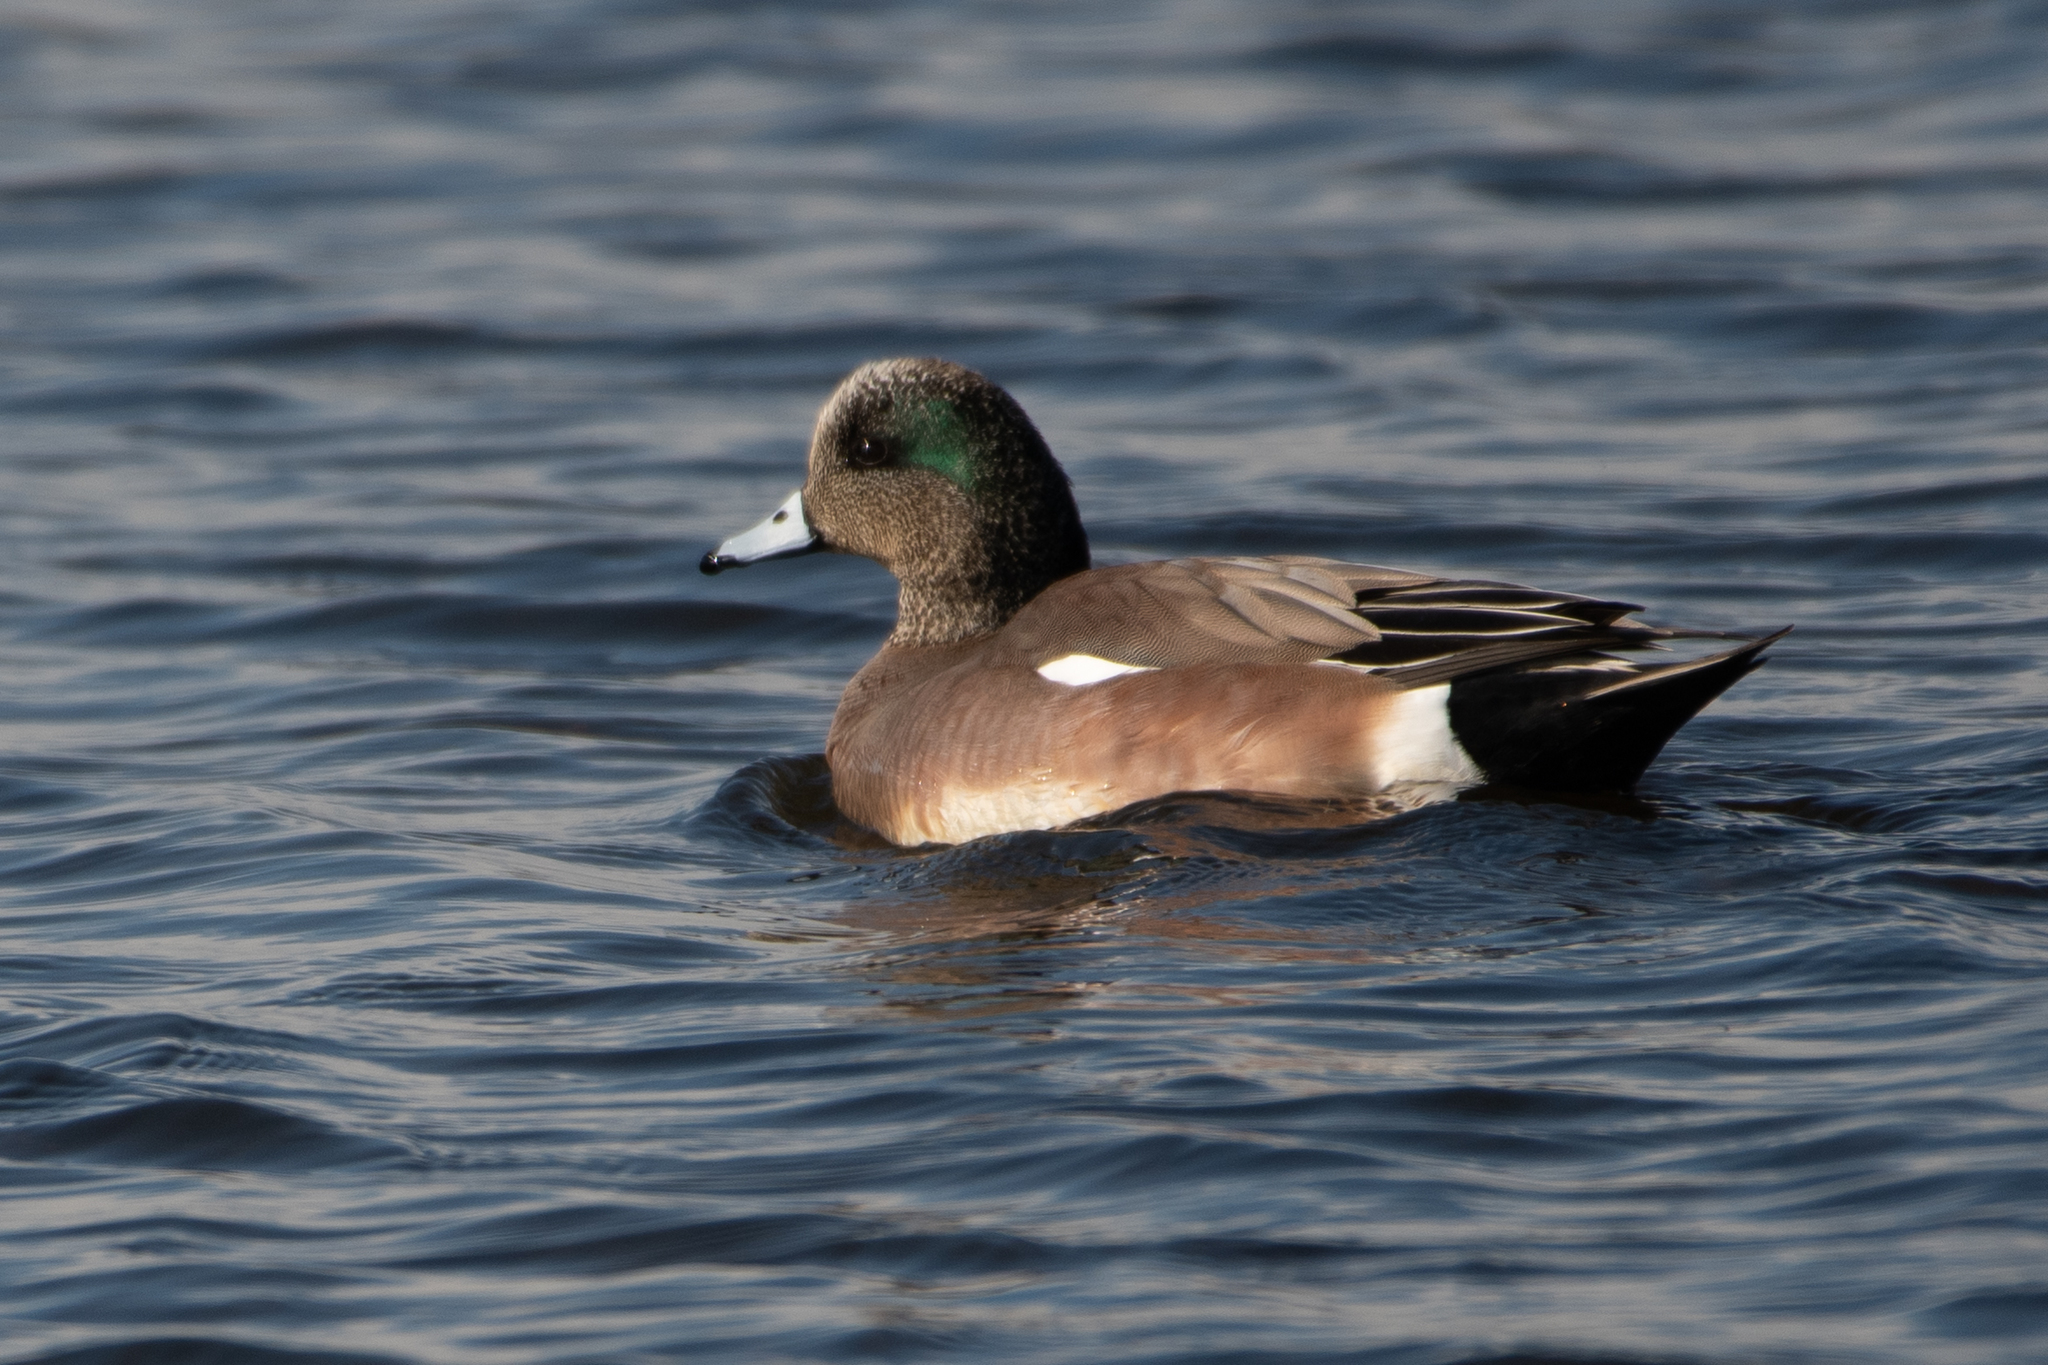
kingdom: Animalia
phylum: Chordata
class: Aves
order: Anseriformes
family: Anatidae
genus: Mareca
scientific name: Mareca americana
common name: American wigeon
